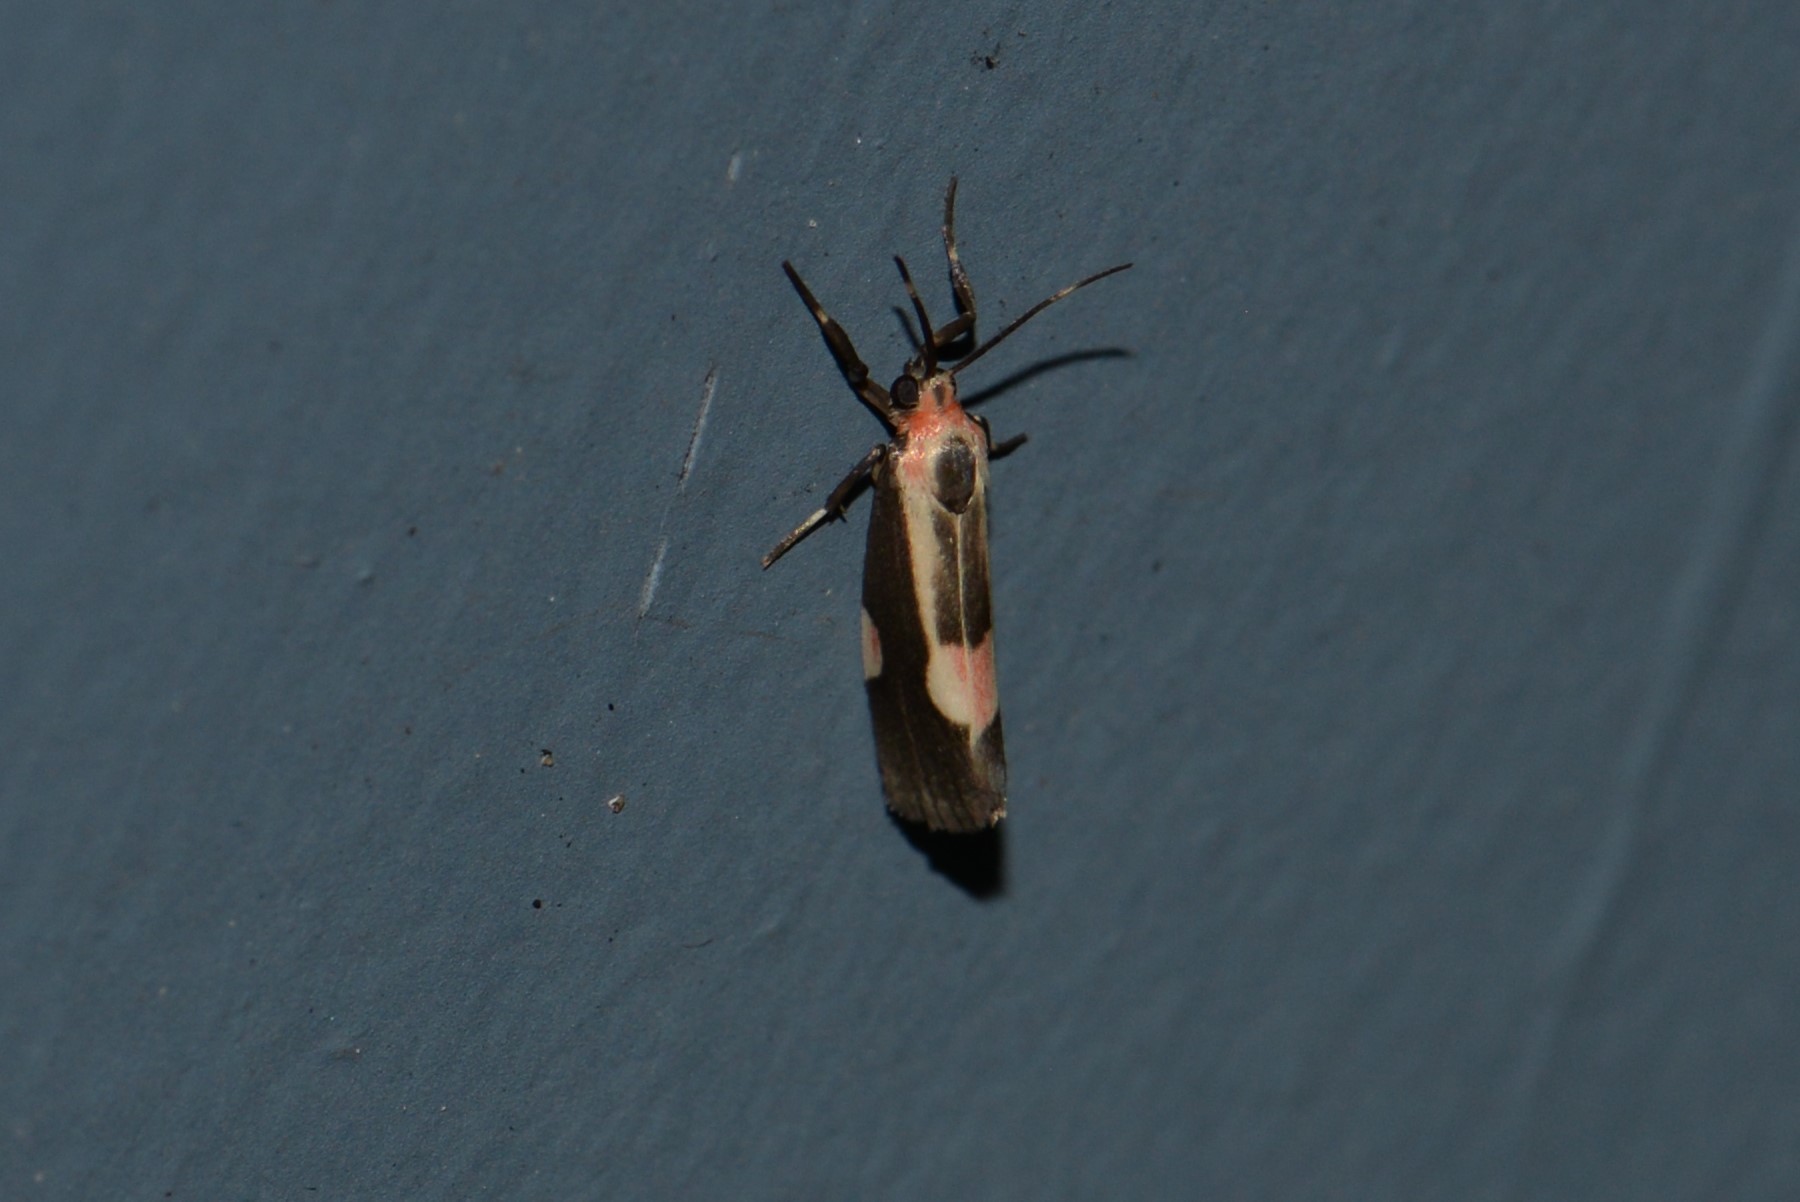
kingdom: Animalia
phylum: Arthropoda
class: Insecta
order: Lepidoptera
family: Erebidae
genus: Cisthene
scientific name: Cisthene packardii
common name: Packard's lichen moth
